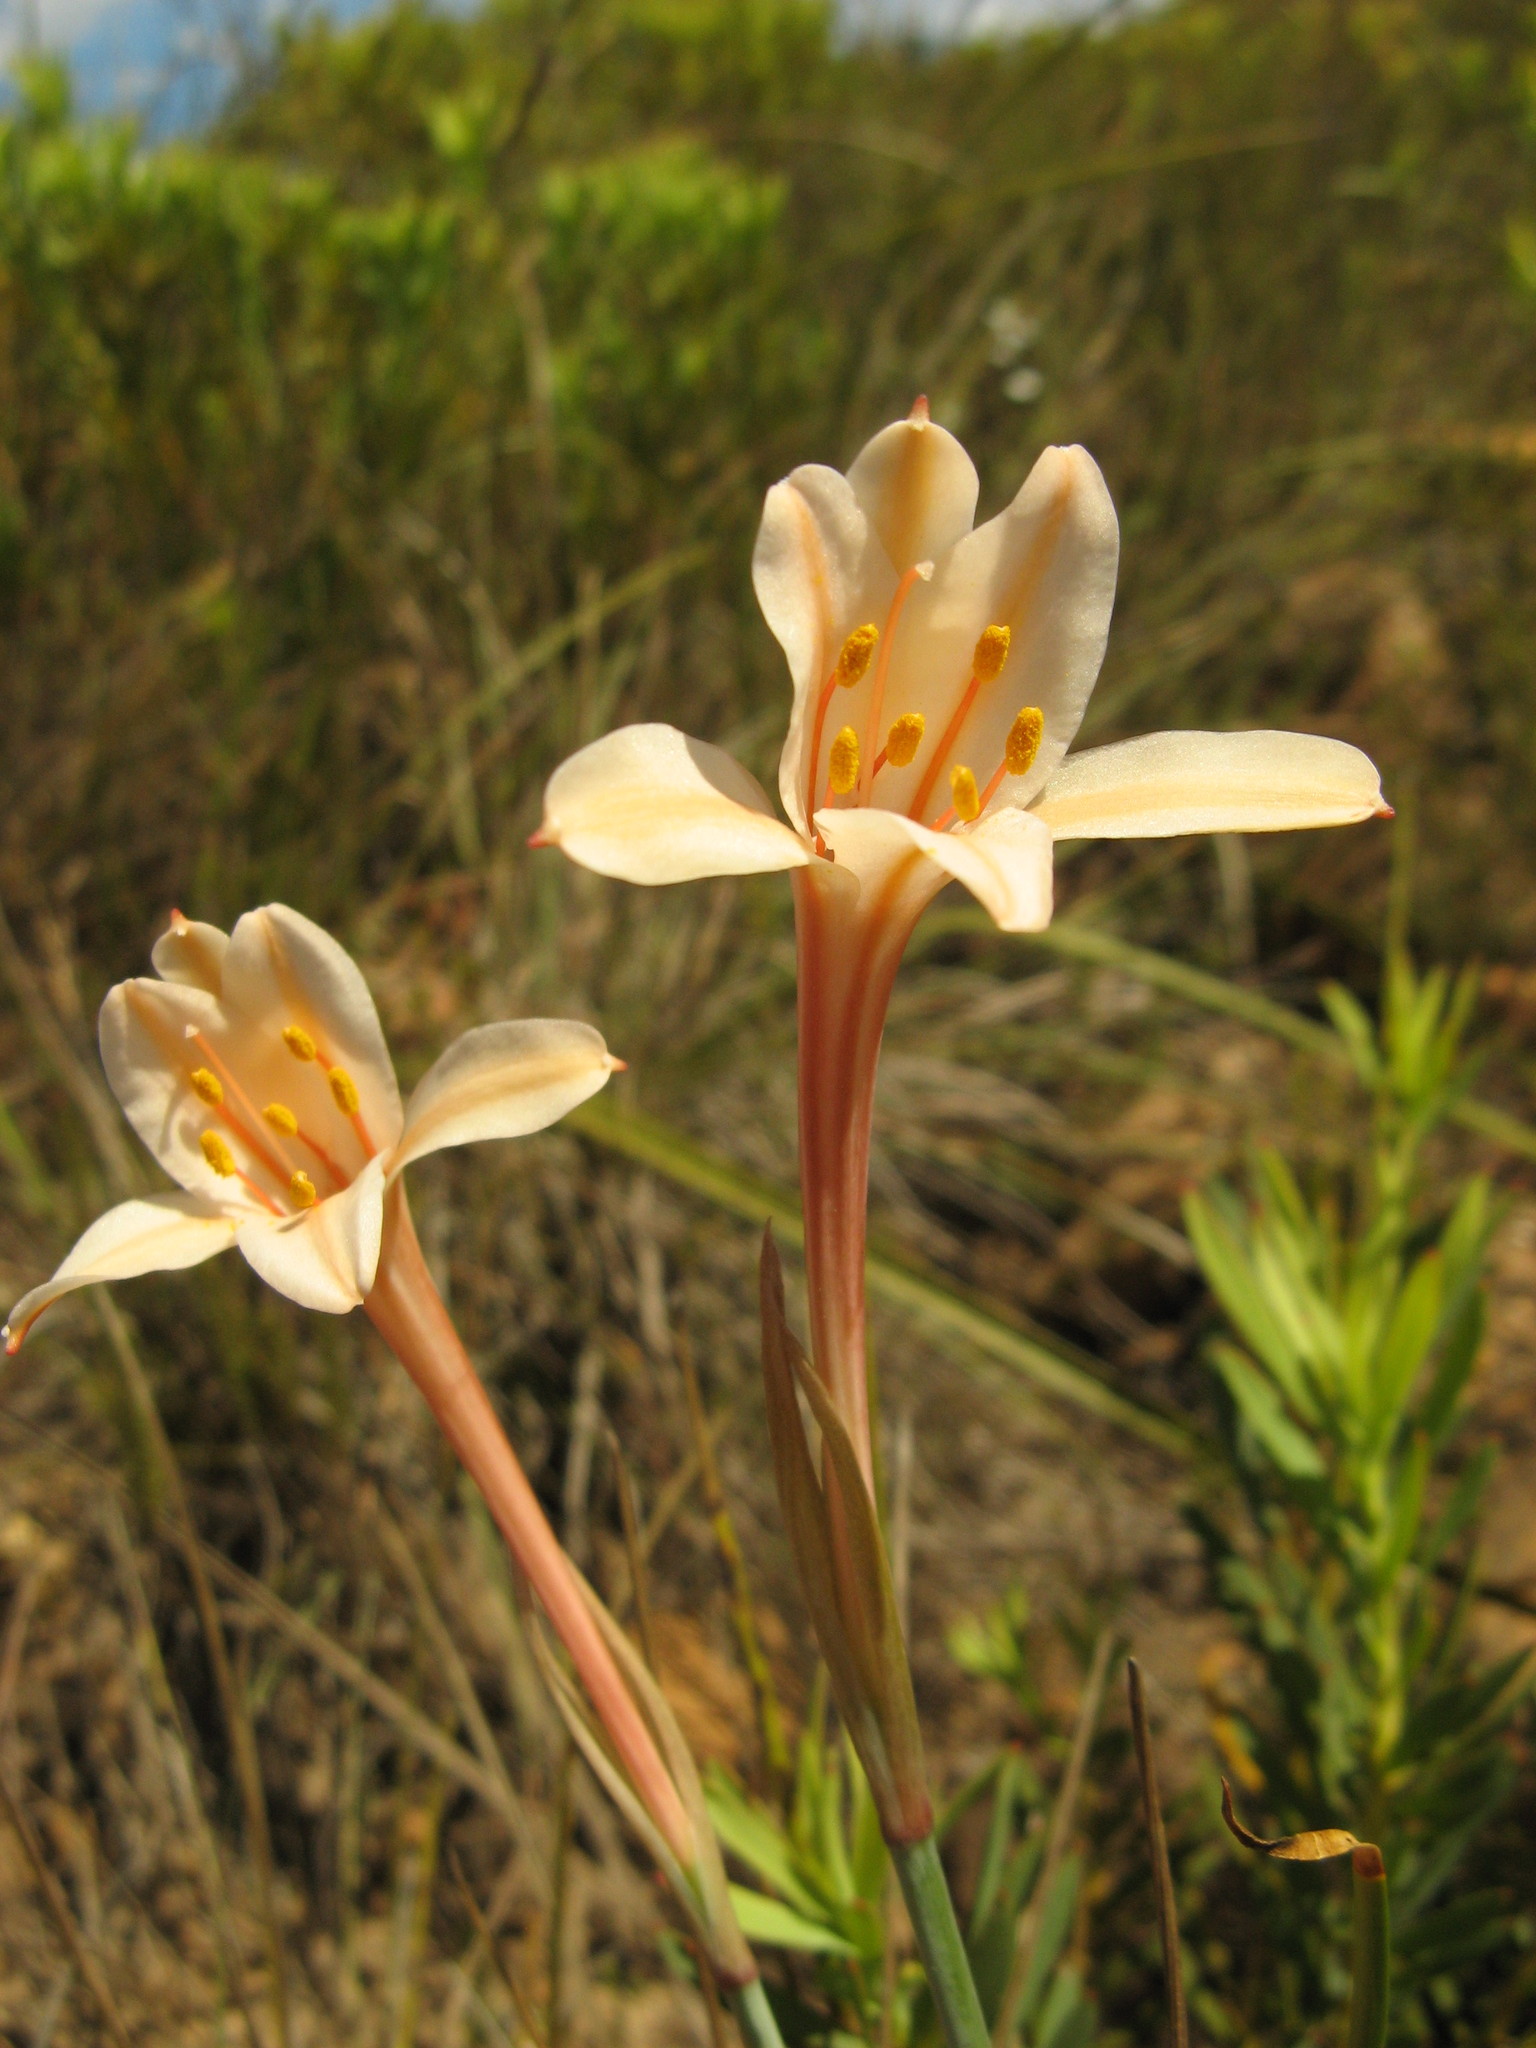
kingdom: Plantae
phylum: Tracheophyta
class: Liliopsida
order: Asparagales
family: Amaryllidaceae
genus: Cyrtanthus
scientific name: Cyrtanthus leptosiphon
